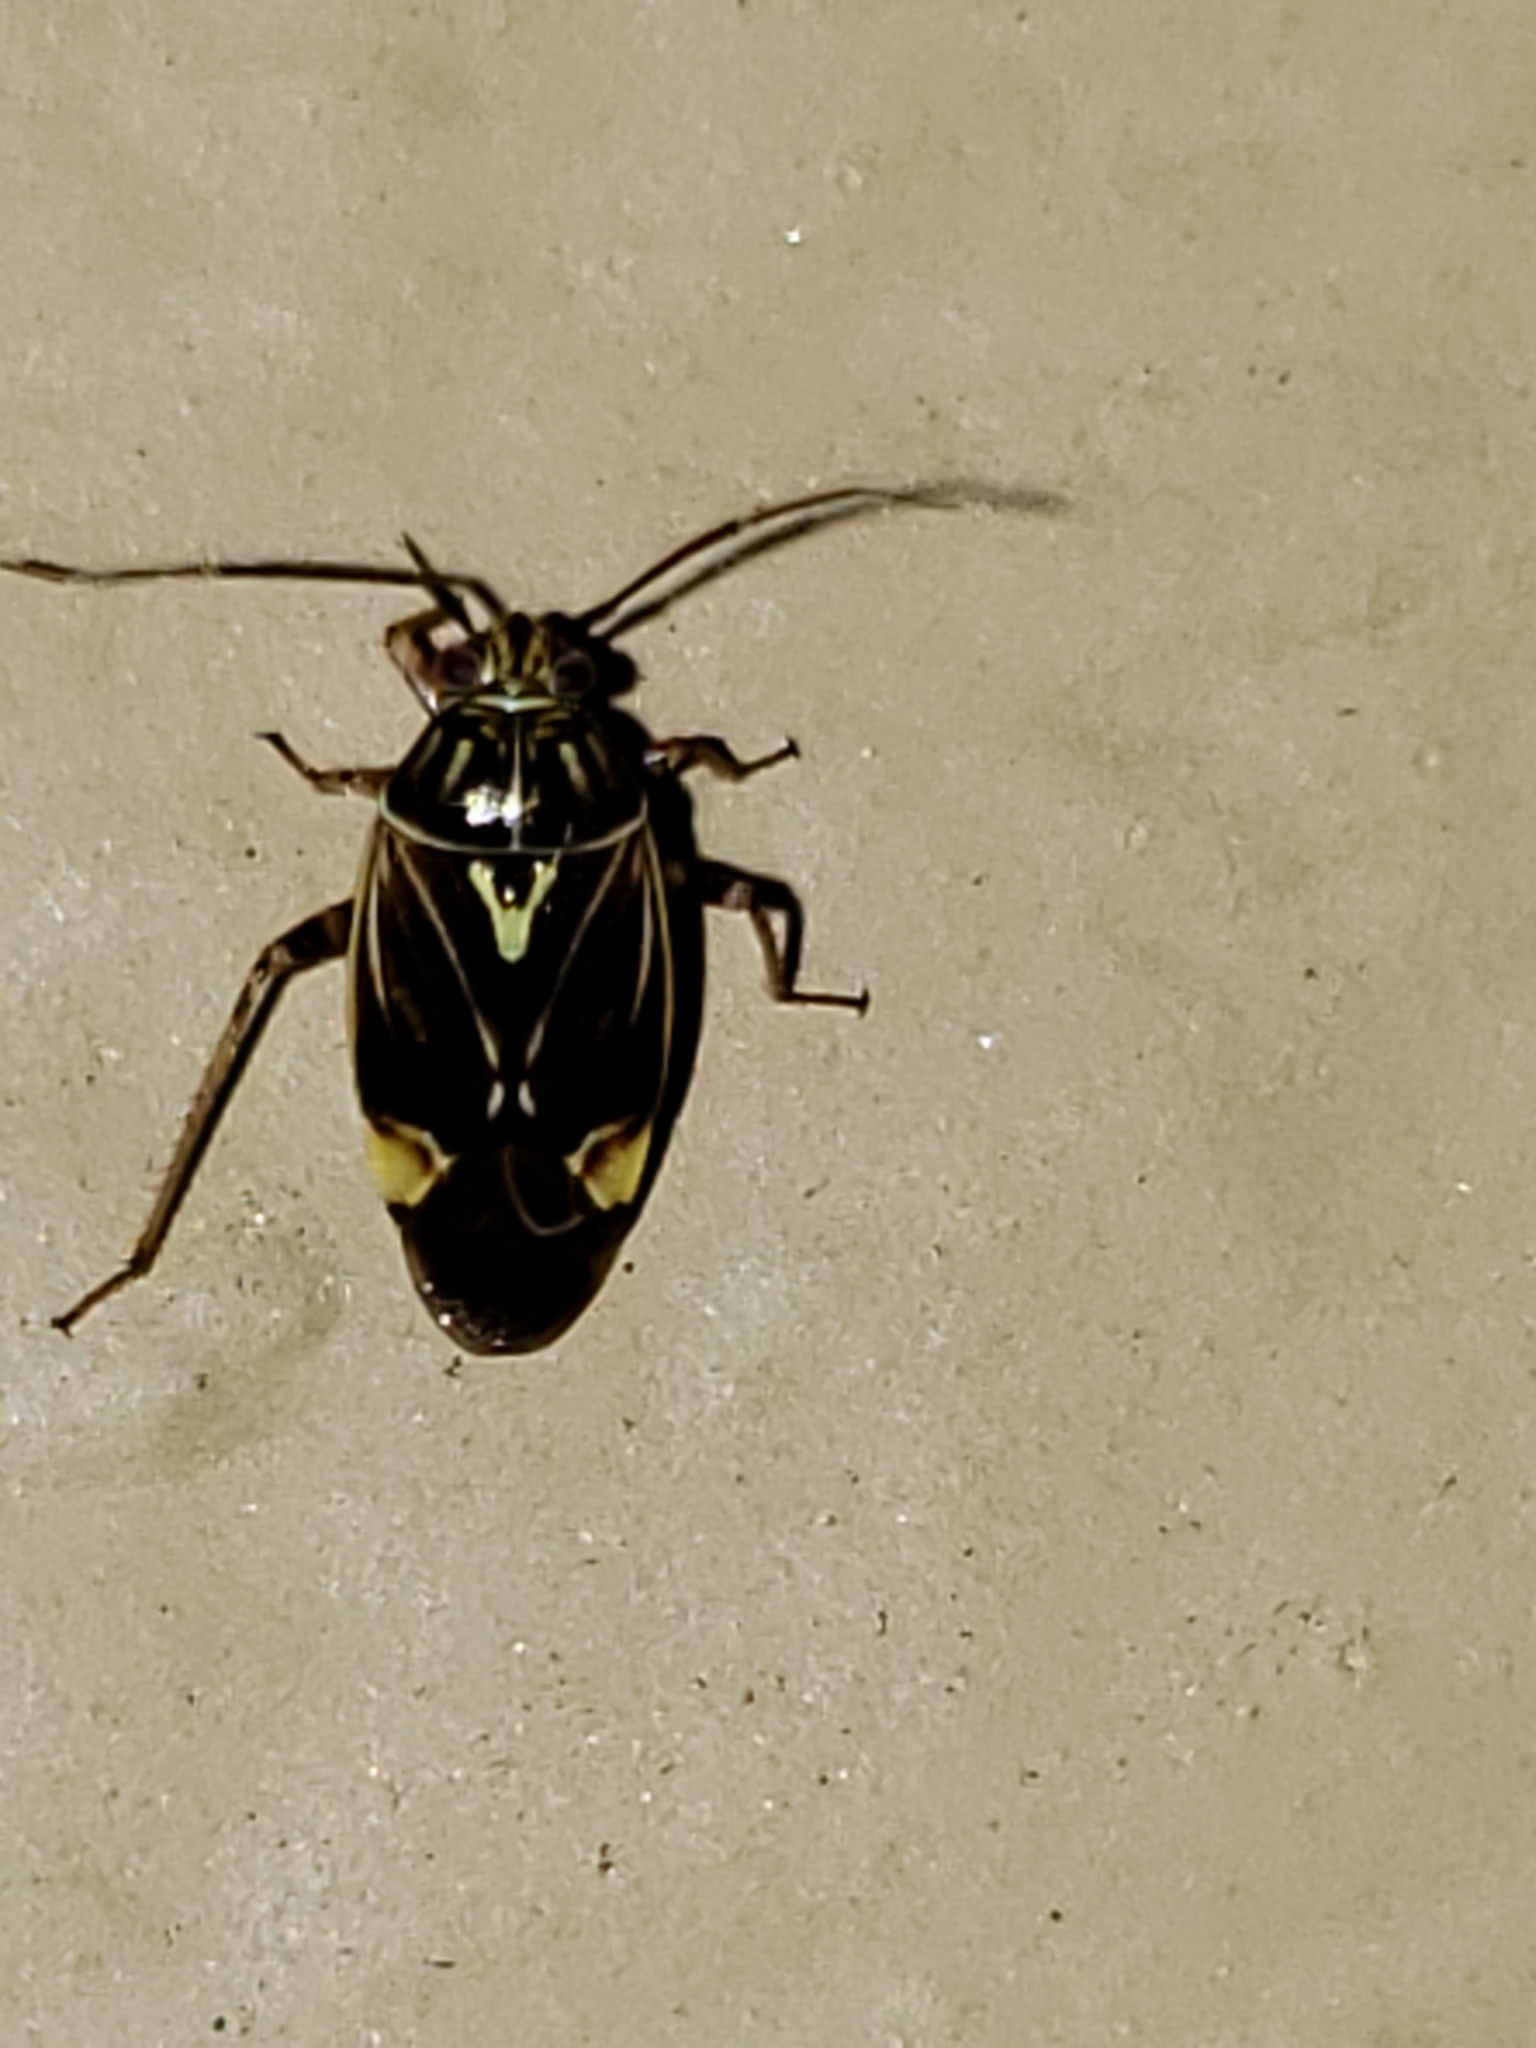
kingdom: Animalia
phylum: Arthropoda
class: Insecta
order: Hemiptera
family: Miridae
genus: Lygus
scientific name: Lygus lineolaris
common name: North american tarnished plant bug
